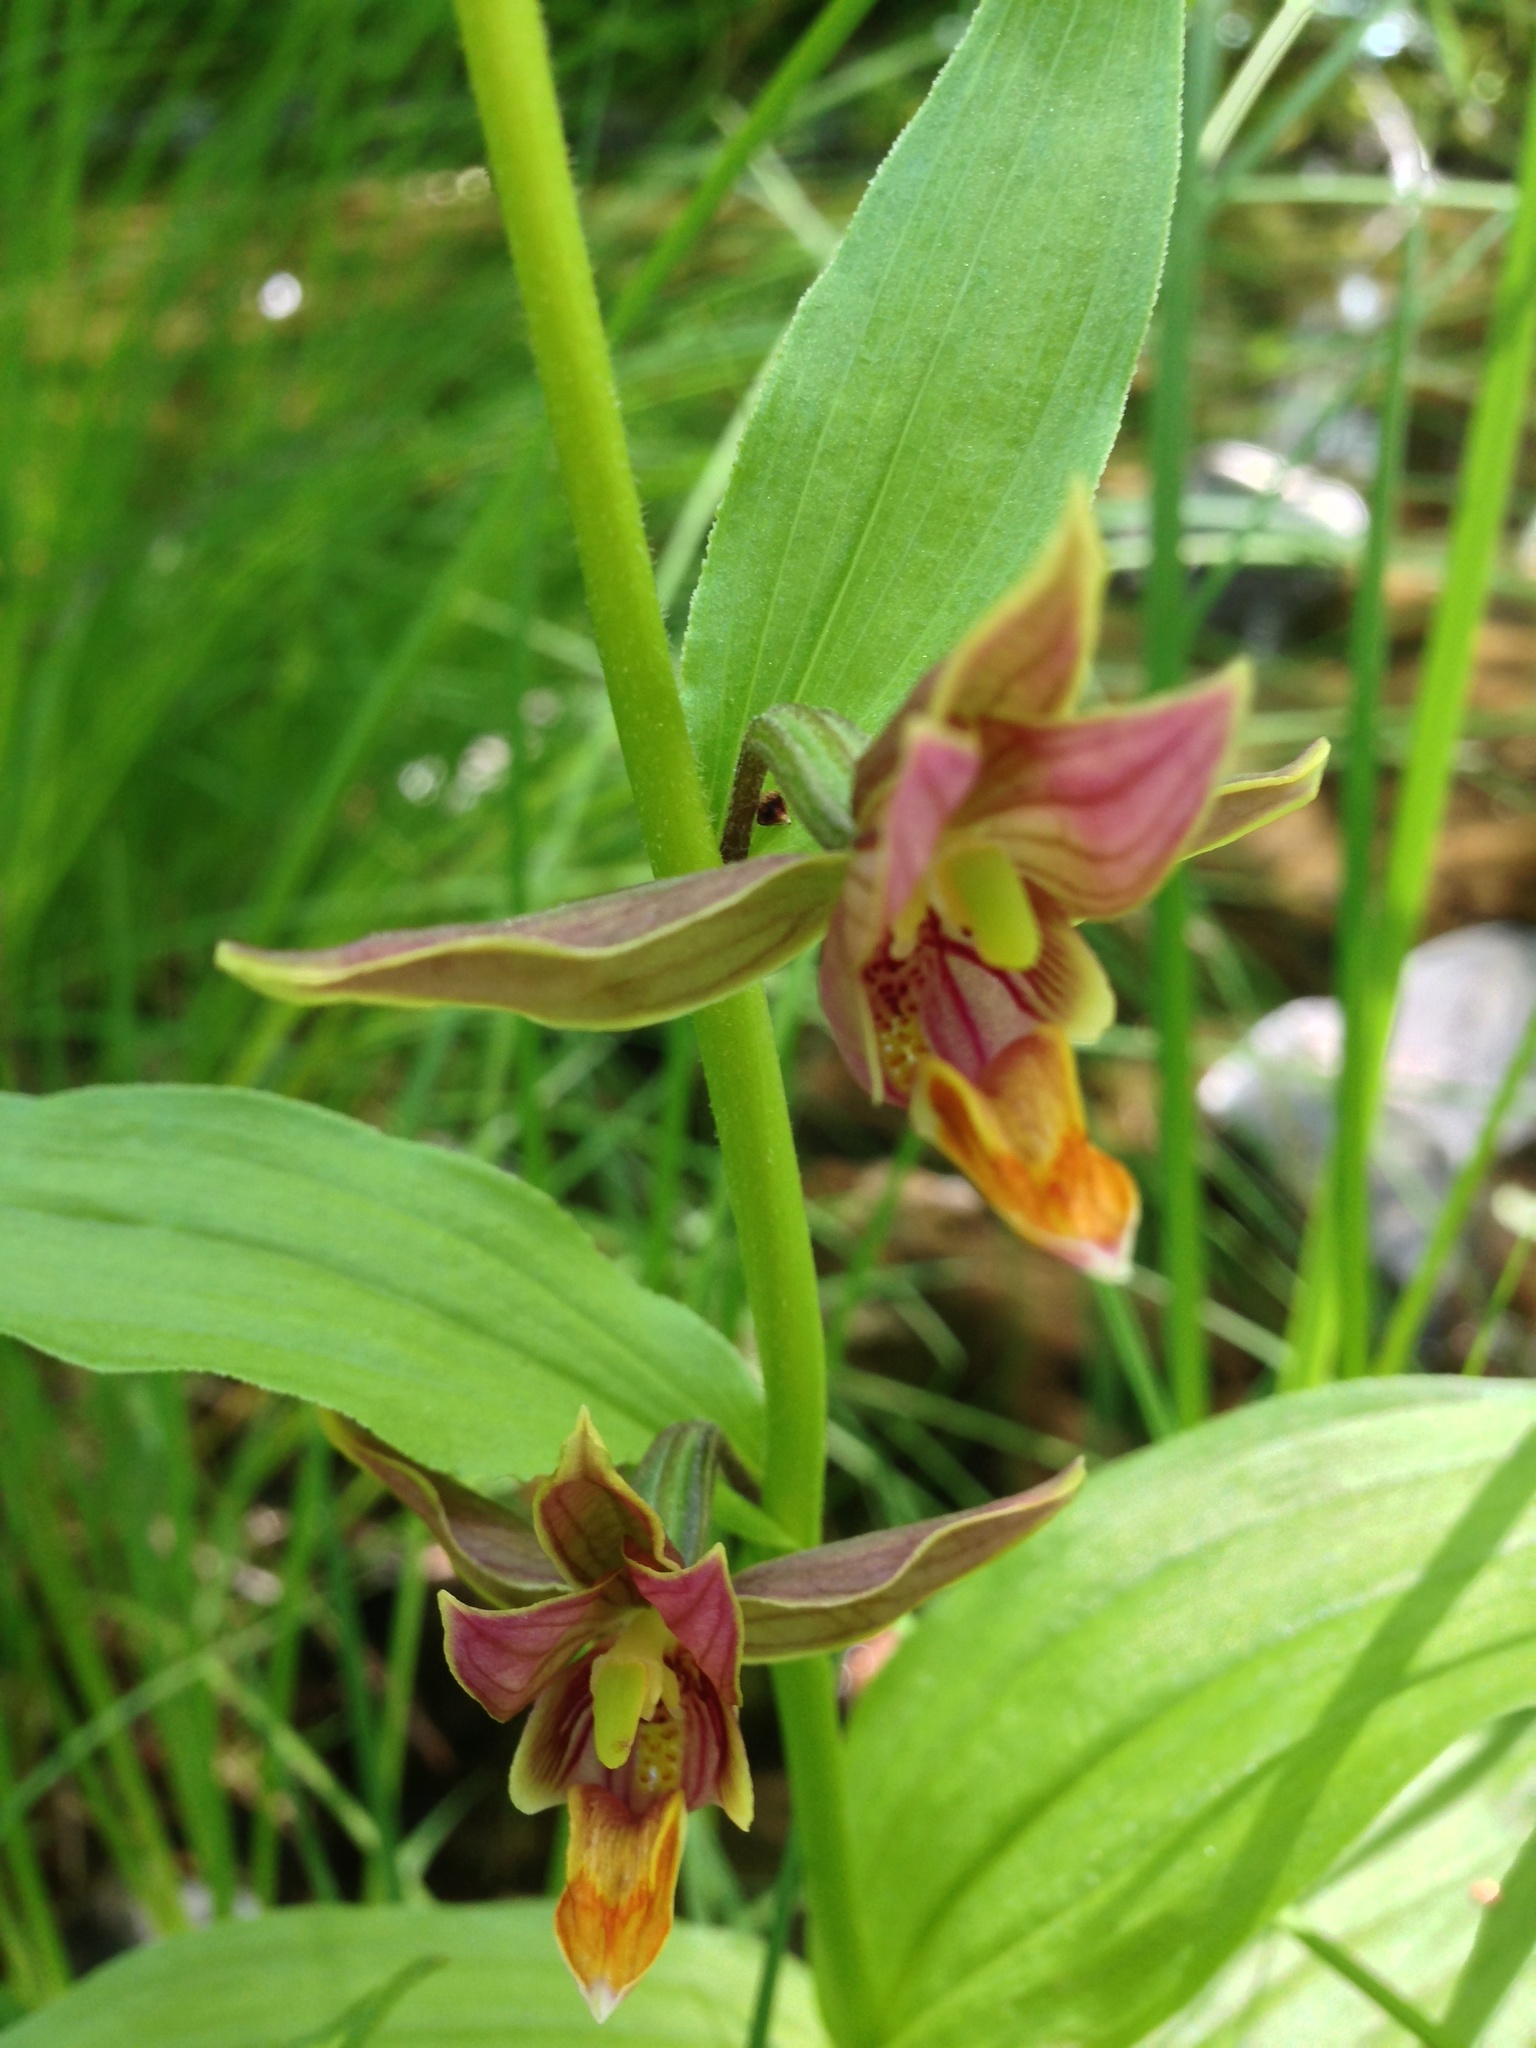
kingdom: Plantae
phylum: Tracheophyta
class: Liliopsida
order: Asparagales
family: Orchidaceae
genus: Epipactis
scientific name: Epipactis gigantea
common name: Chatterbox
